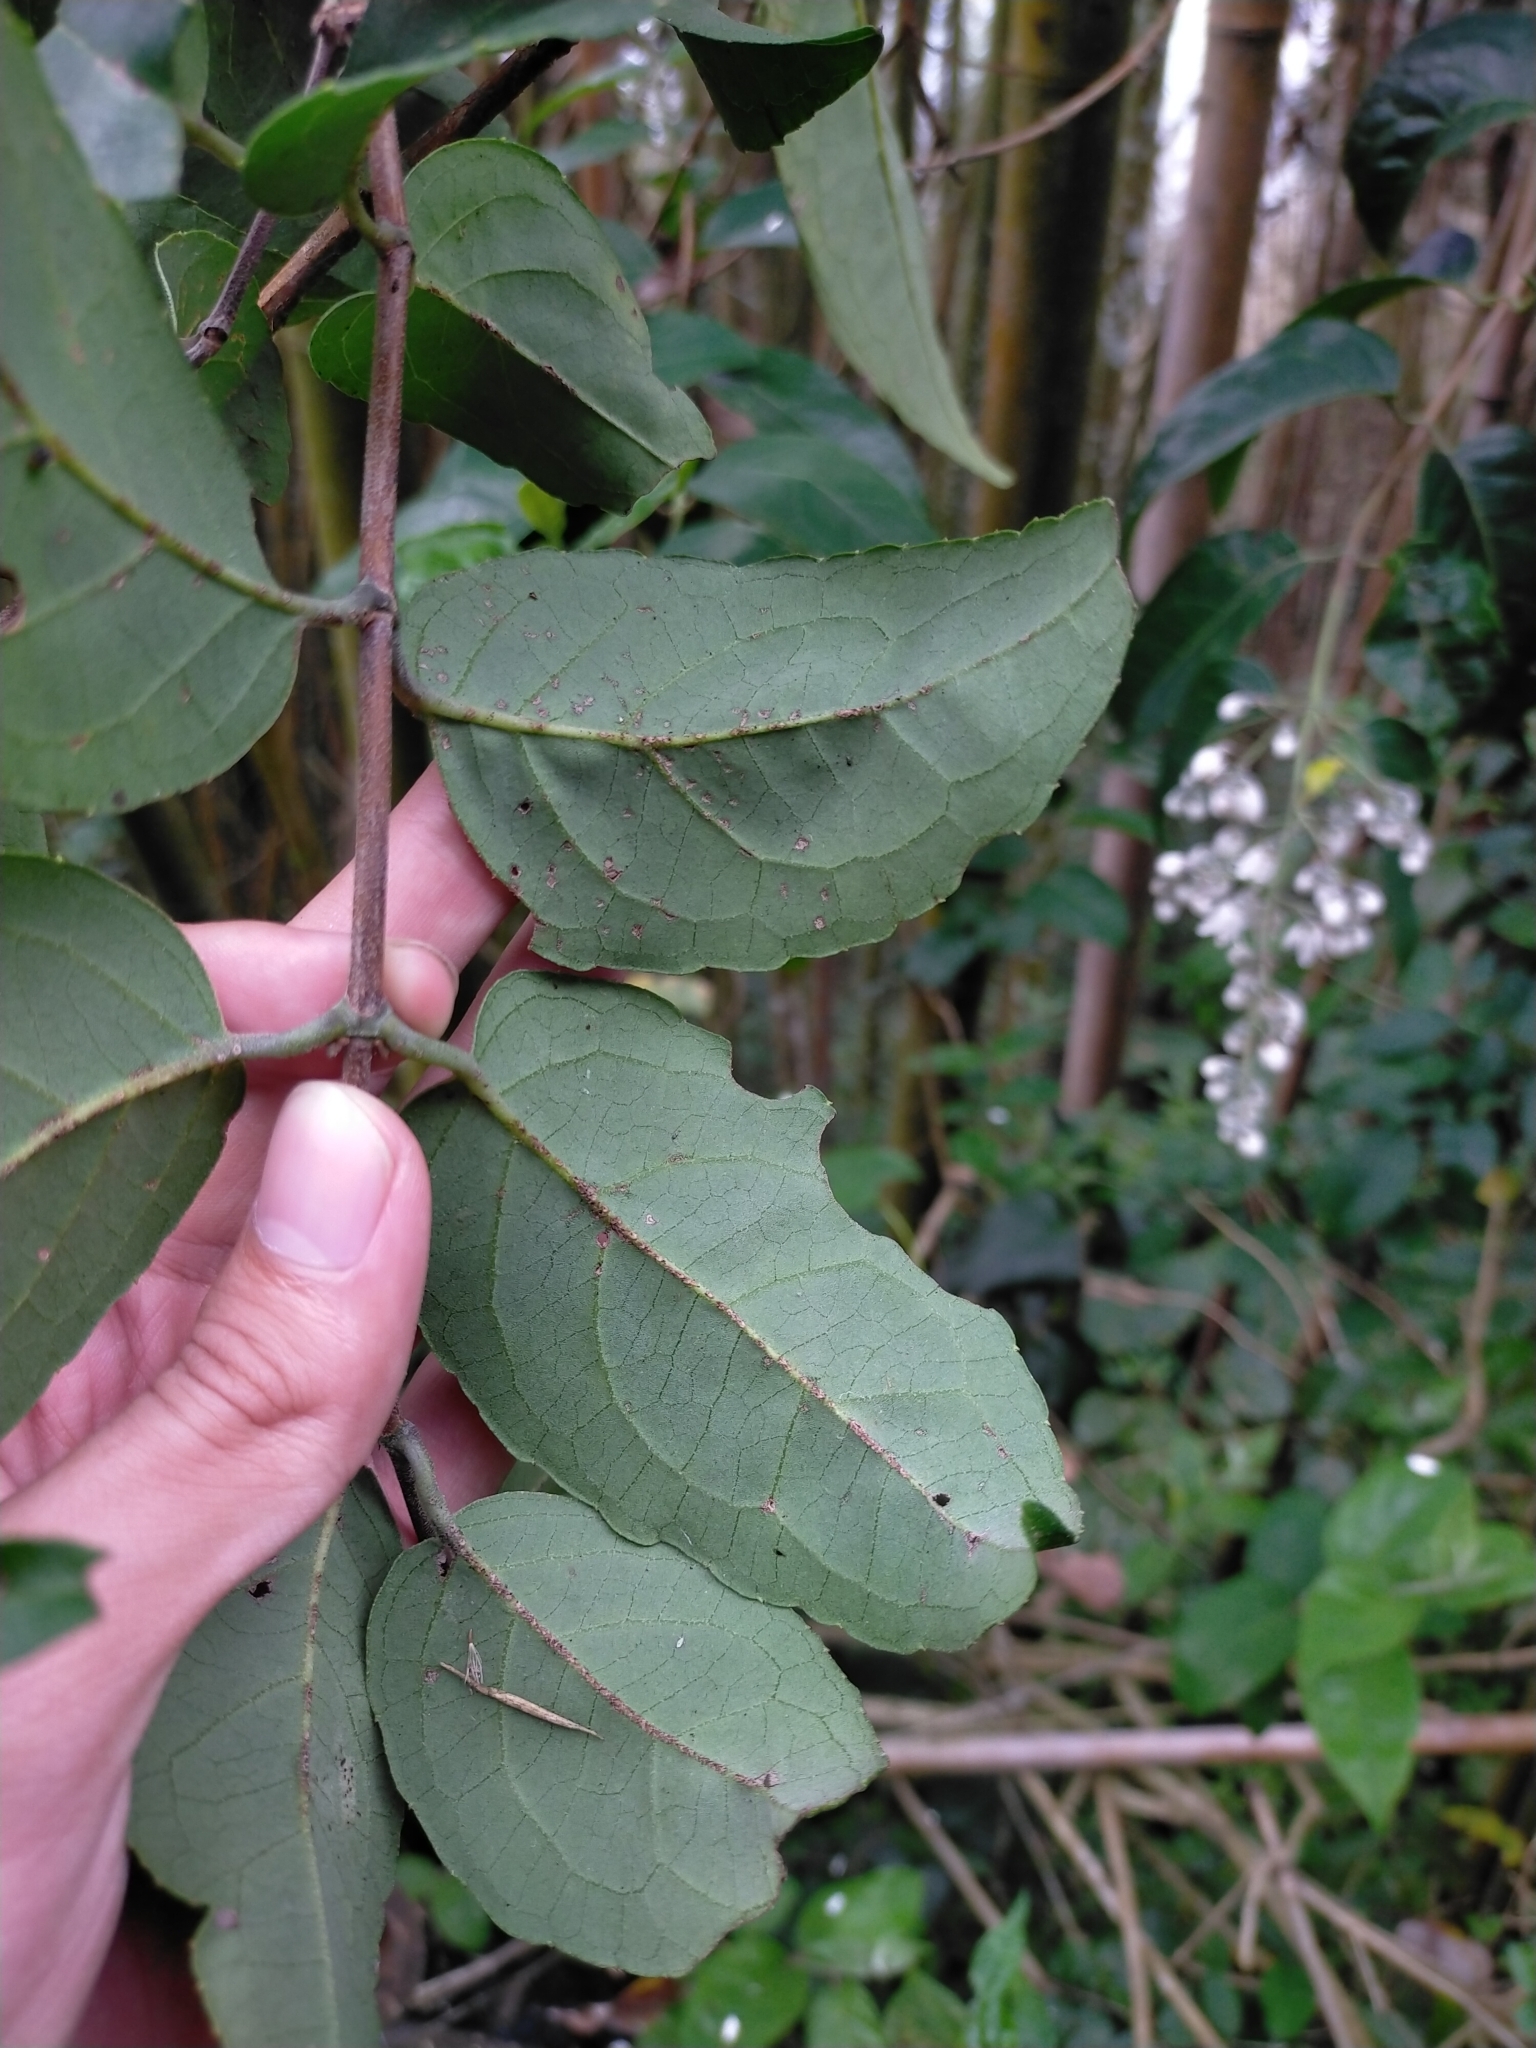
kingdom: Plantae
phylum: Tracheophyta
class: Magnoliopsida
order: Cornales
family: Hydrangeaceae
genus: Deutzia
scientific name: Deutzia pulchra
